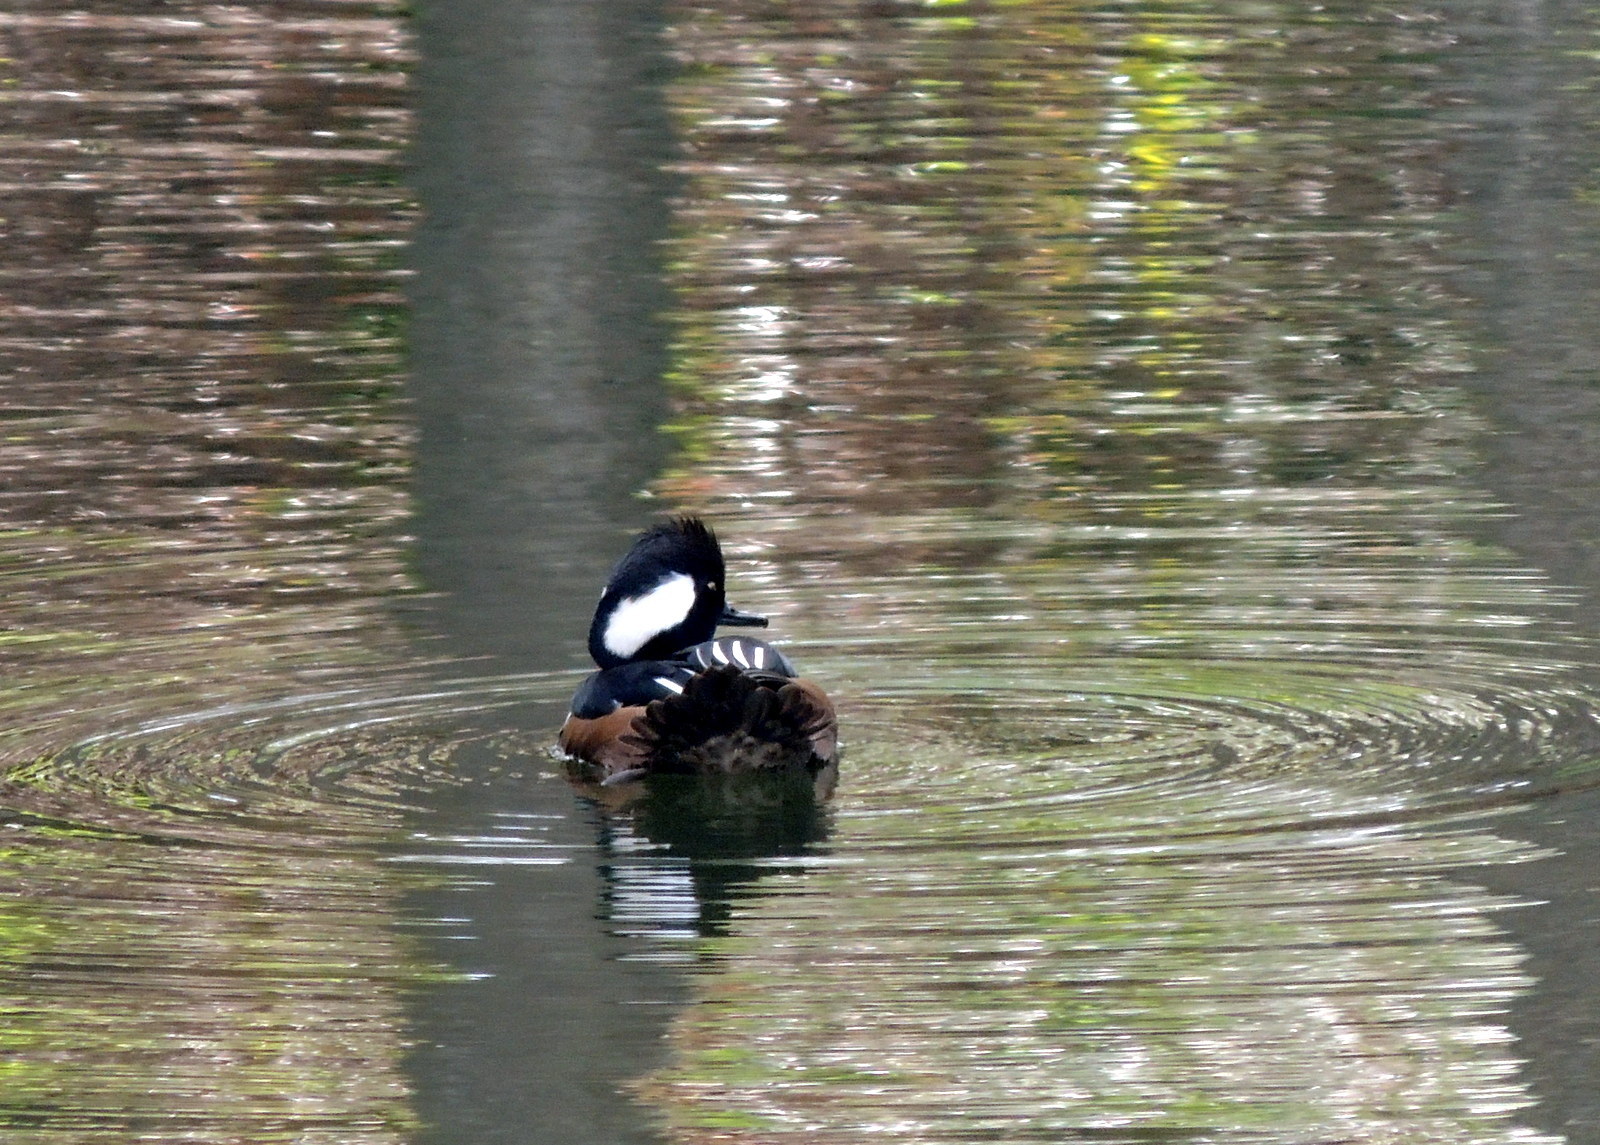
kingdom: Animalia
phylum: Chordata
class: Aves
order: Anseriformes
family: Anatidae
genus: Lophodytes
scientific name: Lophodytes cucullatus
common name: Hooded merganser
